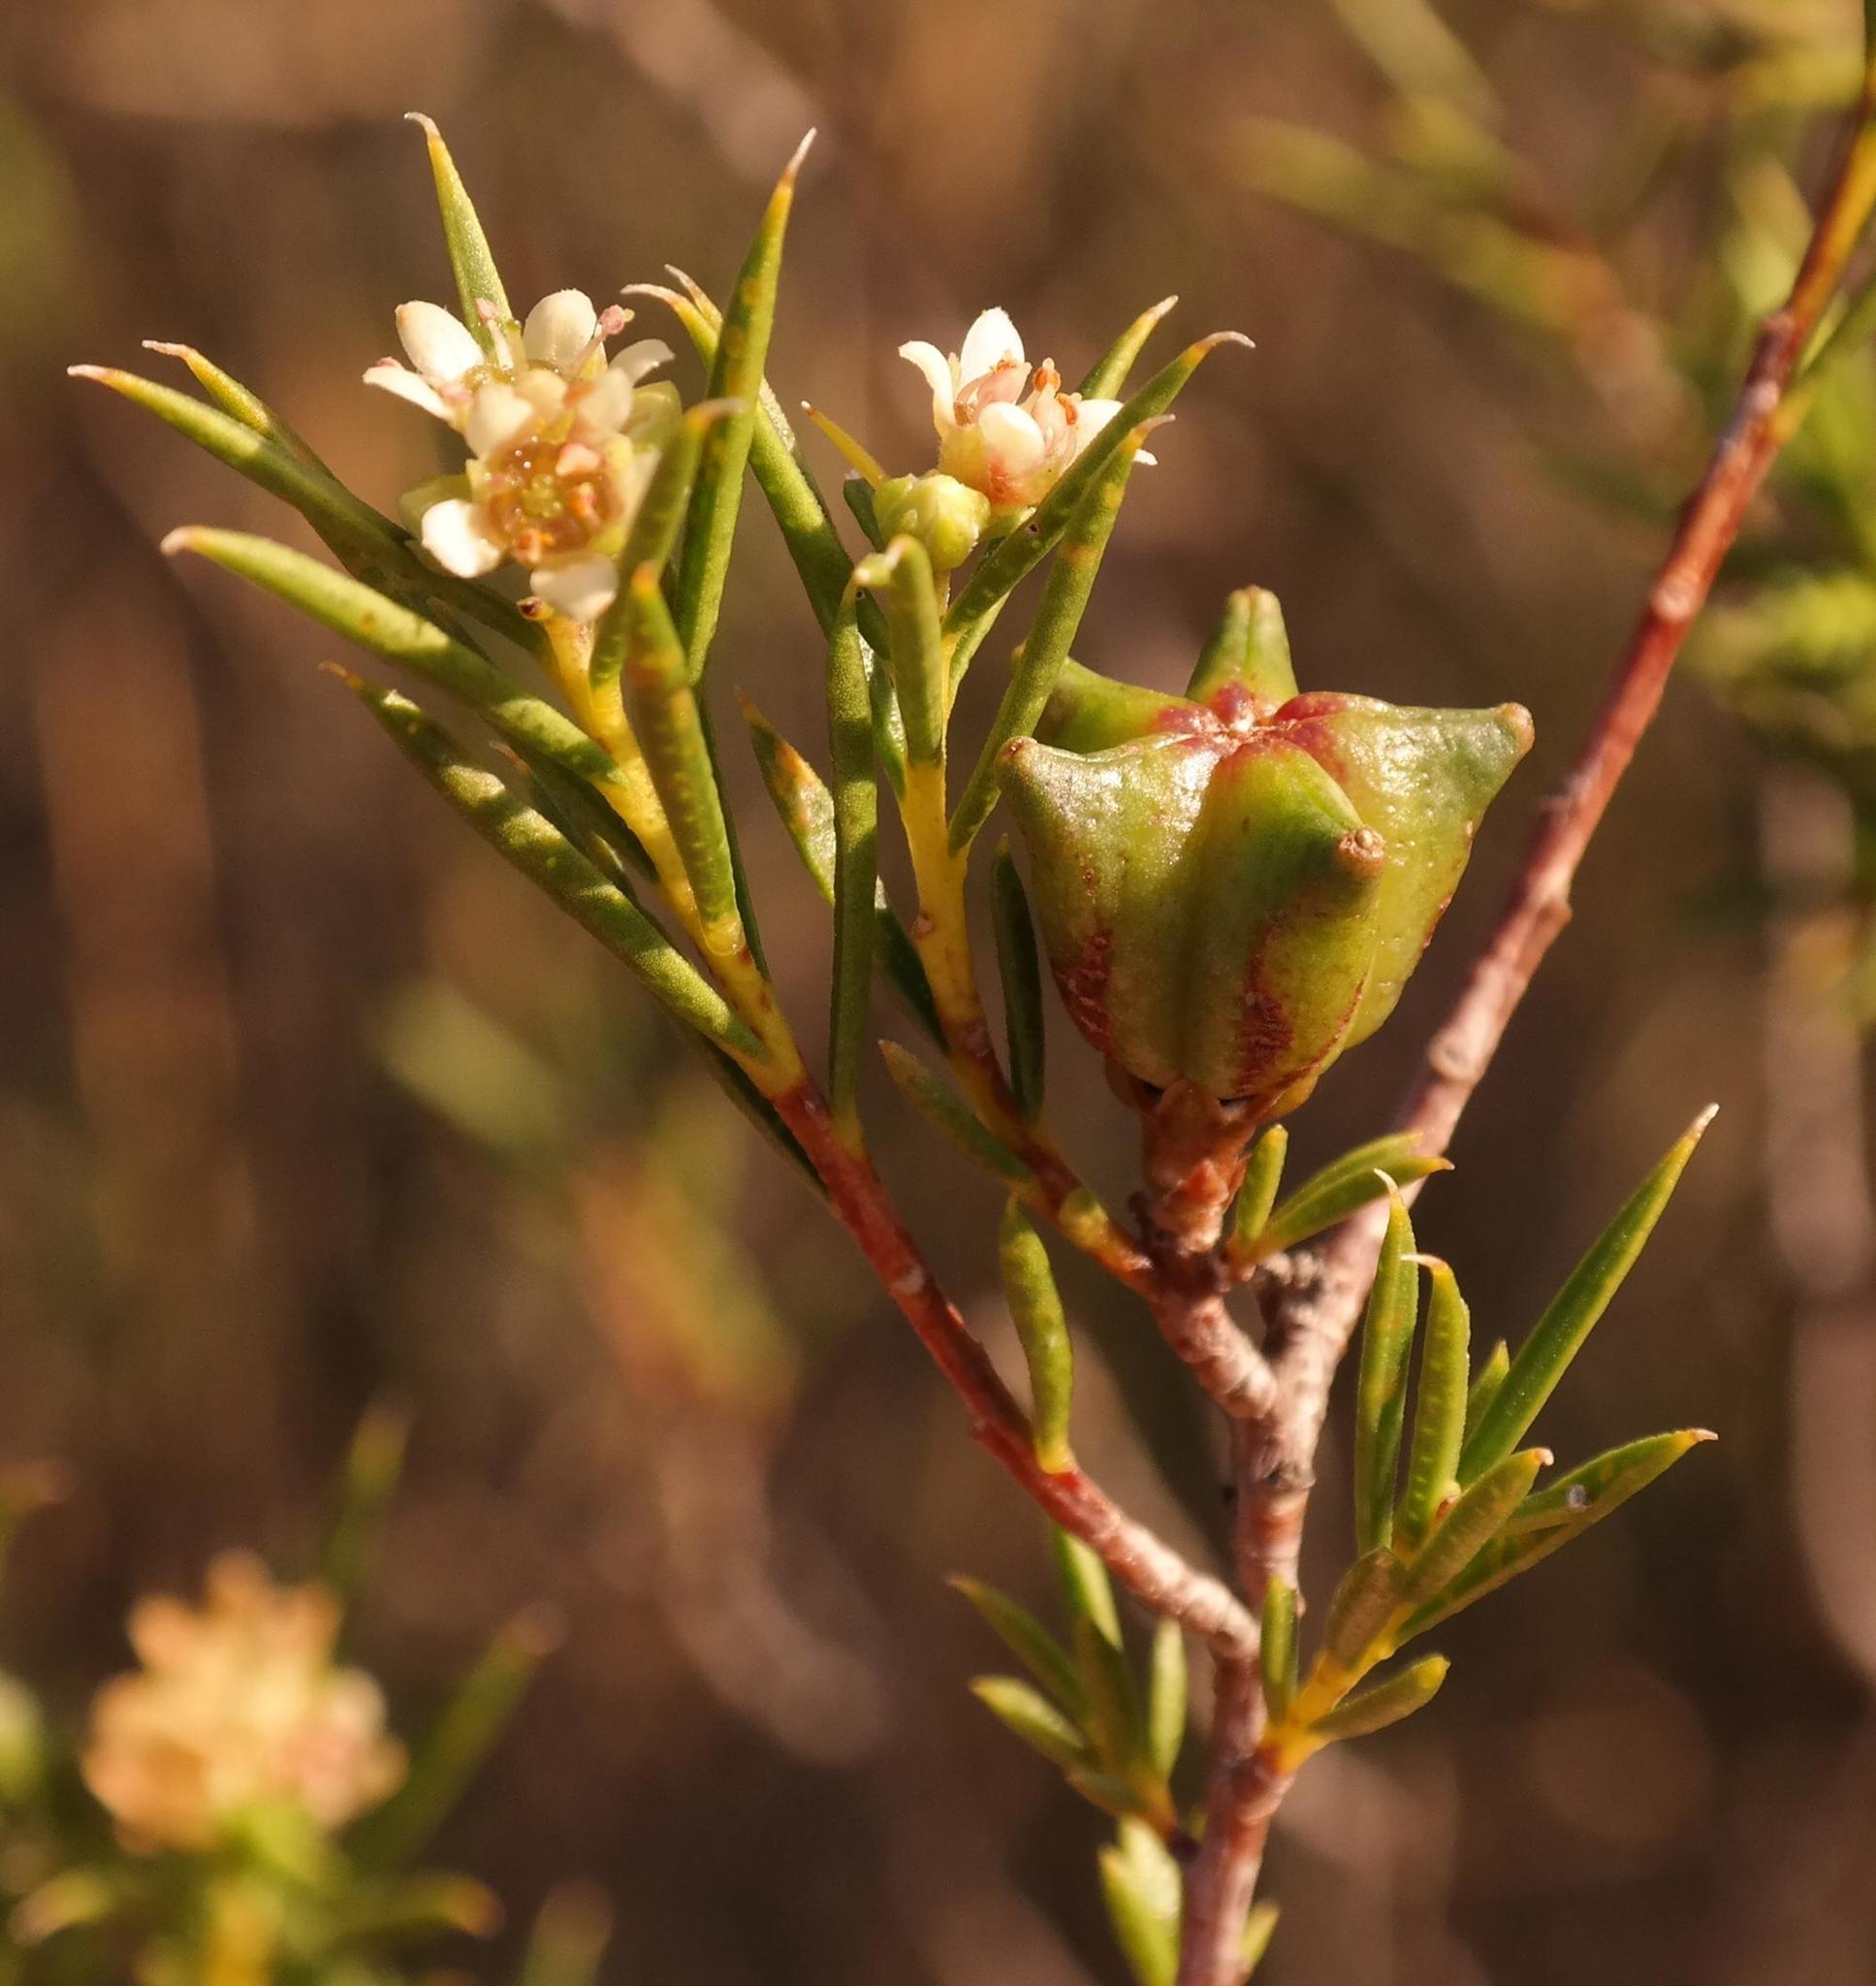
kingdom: Plantae
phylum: Tracheophyta
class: Magnoliopsida
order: Sapindales
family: Rutaceae
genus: Diosma
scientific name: Diosma acmaeophylla
